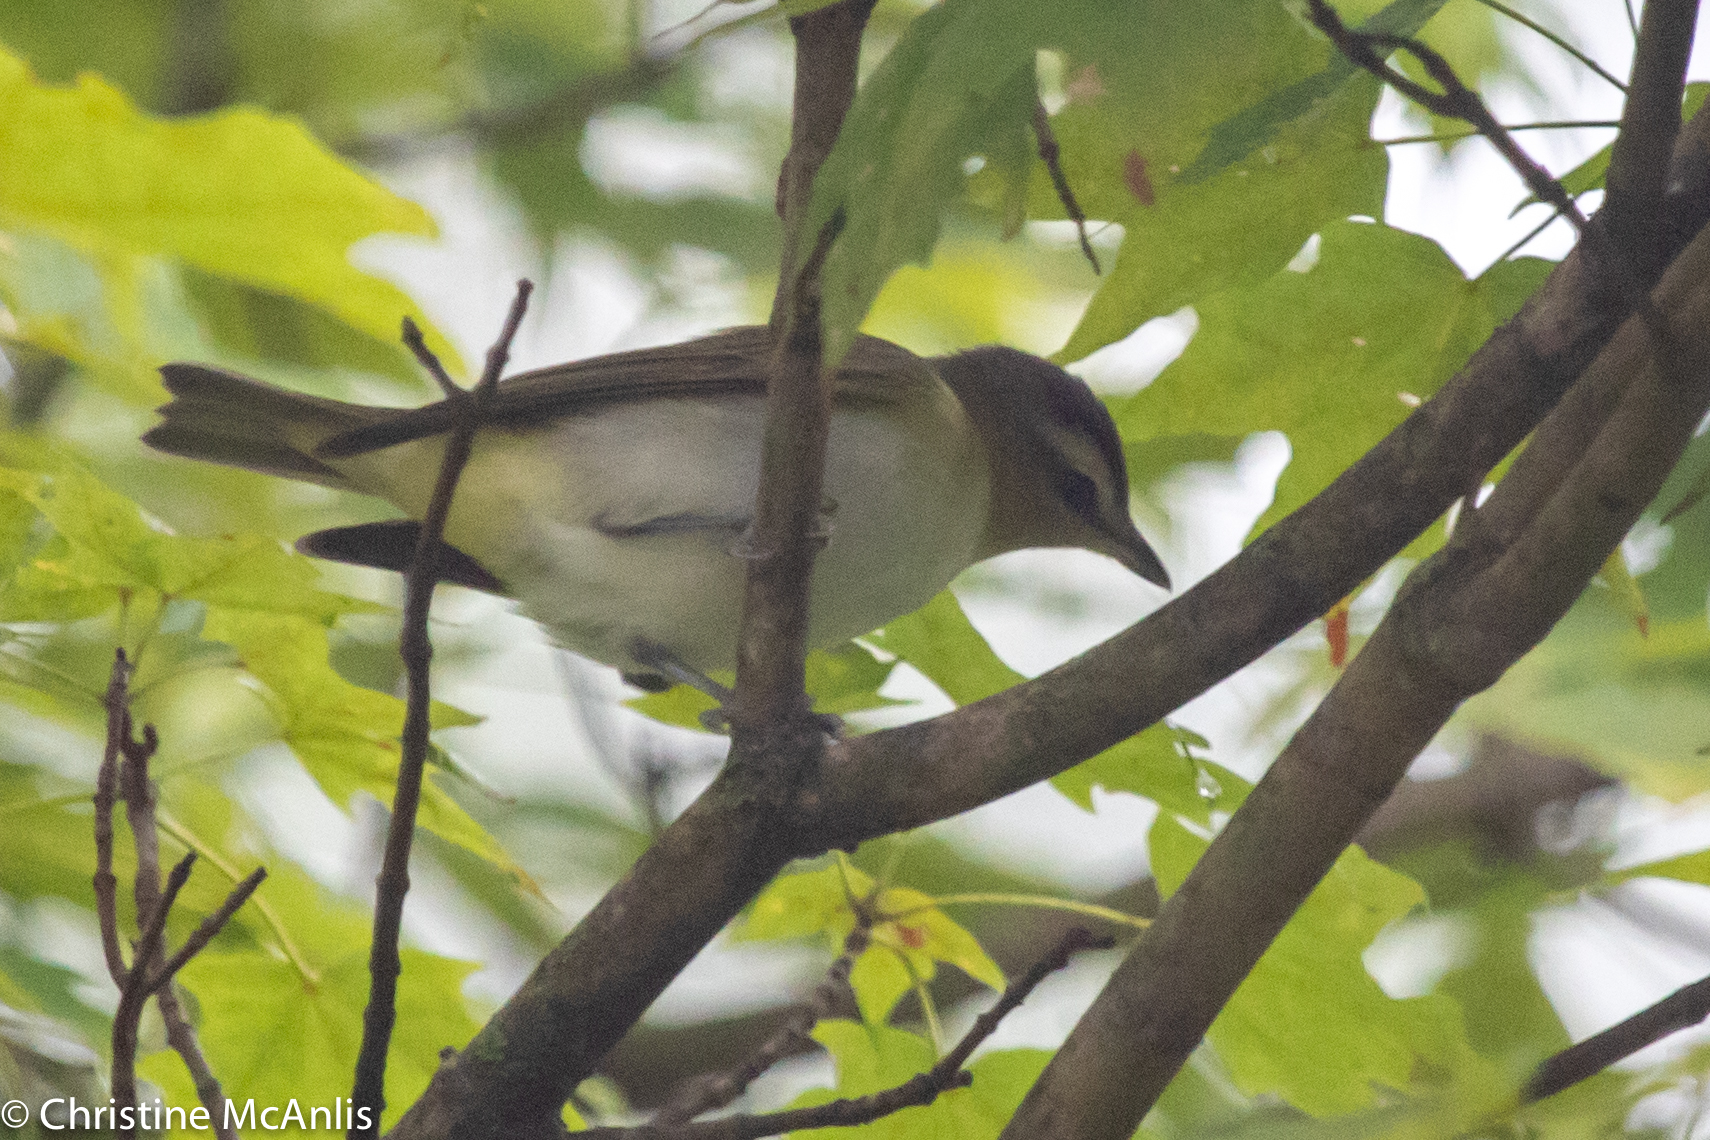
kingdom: Animalia
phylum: Chordata
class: Aves
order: Passeriformes
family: Vireonidae
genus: Vireo
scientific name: Vireo olivaceus
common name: Red-eyed vireo
